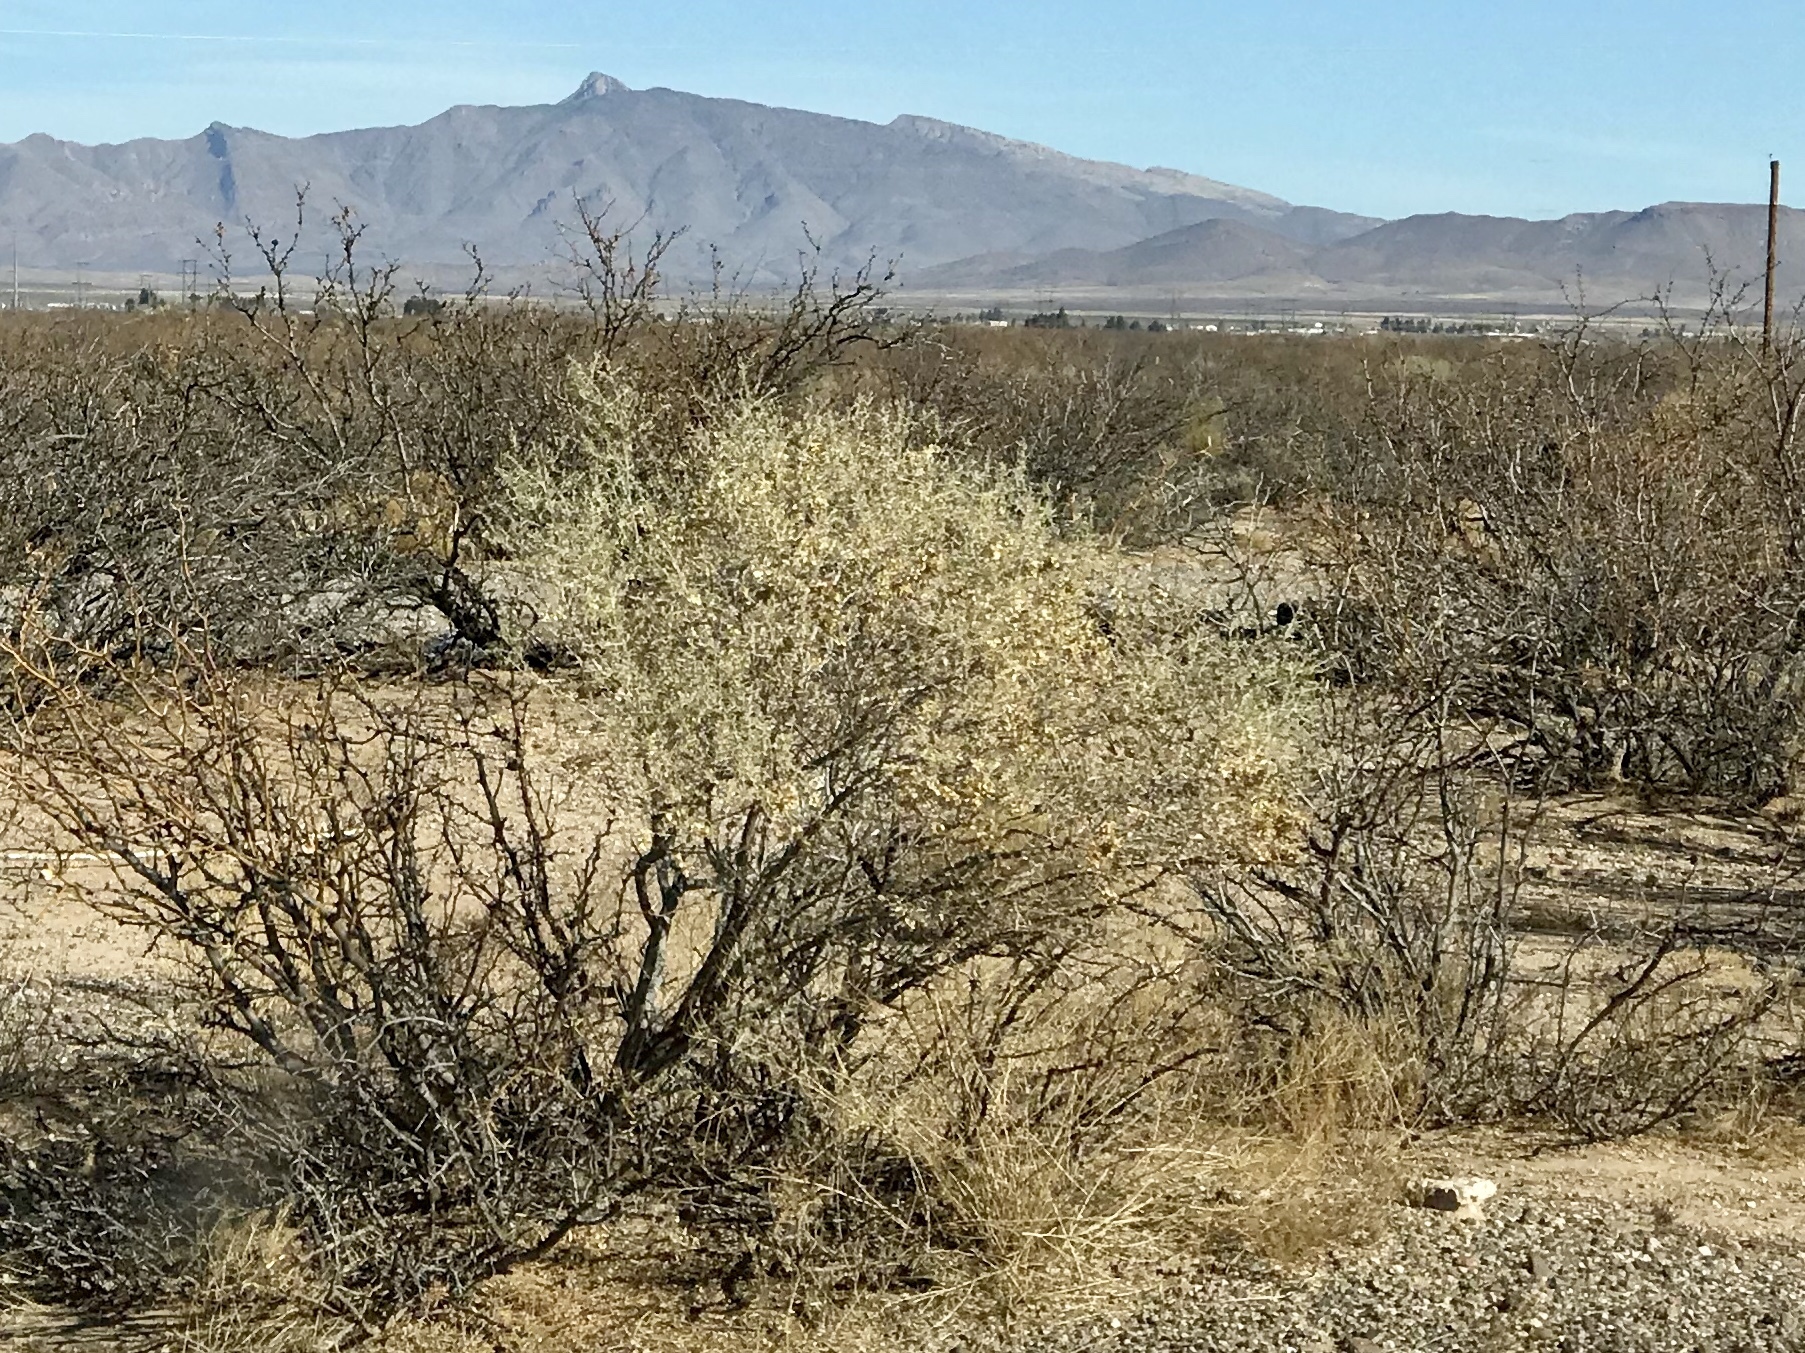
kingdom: Plantae
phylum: Tracheophyta
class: Magnoliopsida
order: Caryophyllales
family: Amaranthaceae
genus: Atriplex
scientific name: Atriplex canescens
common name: Four-wing saltbush
